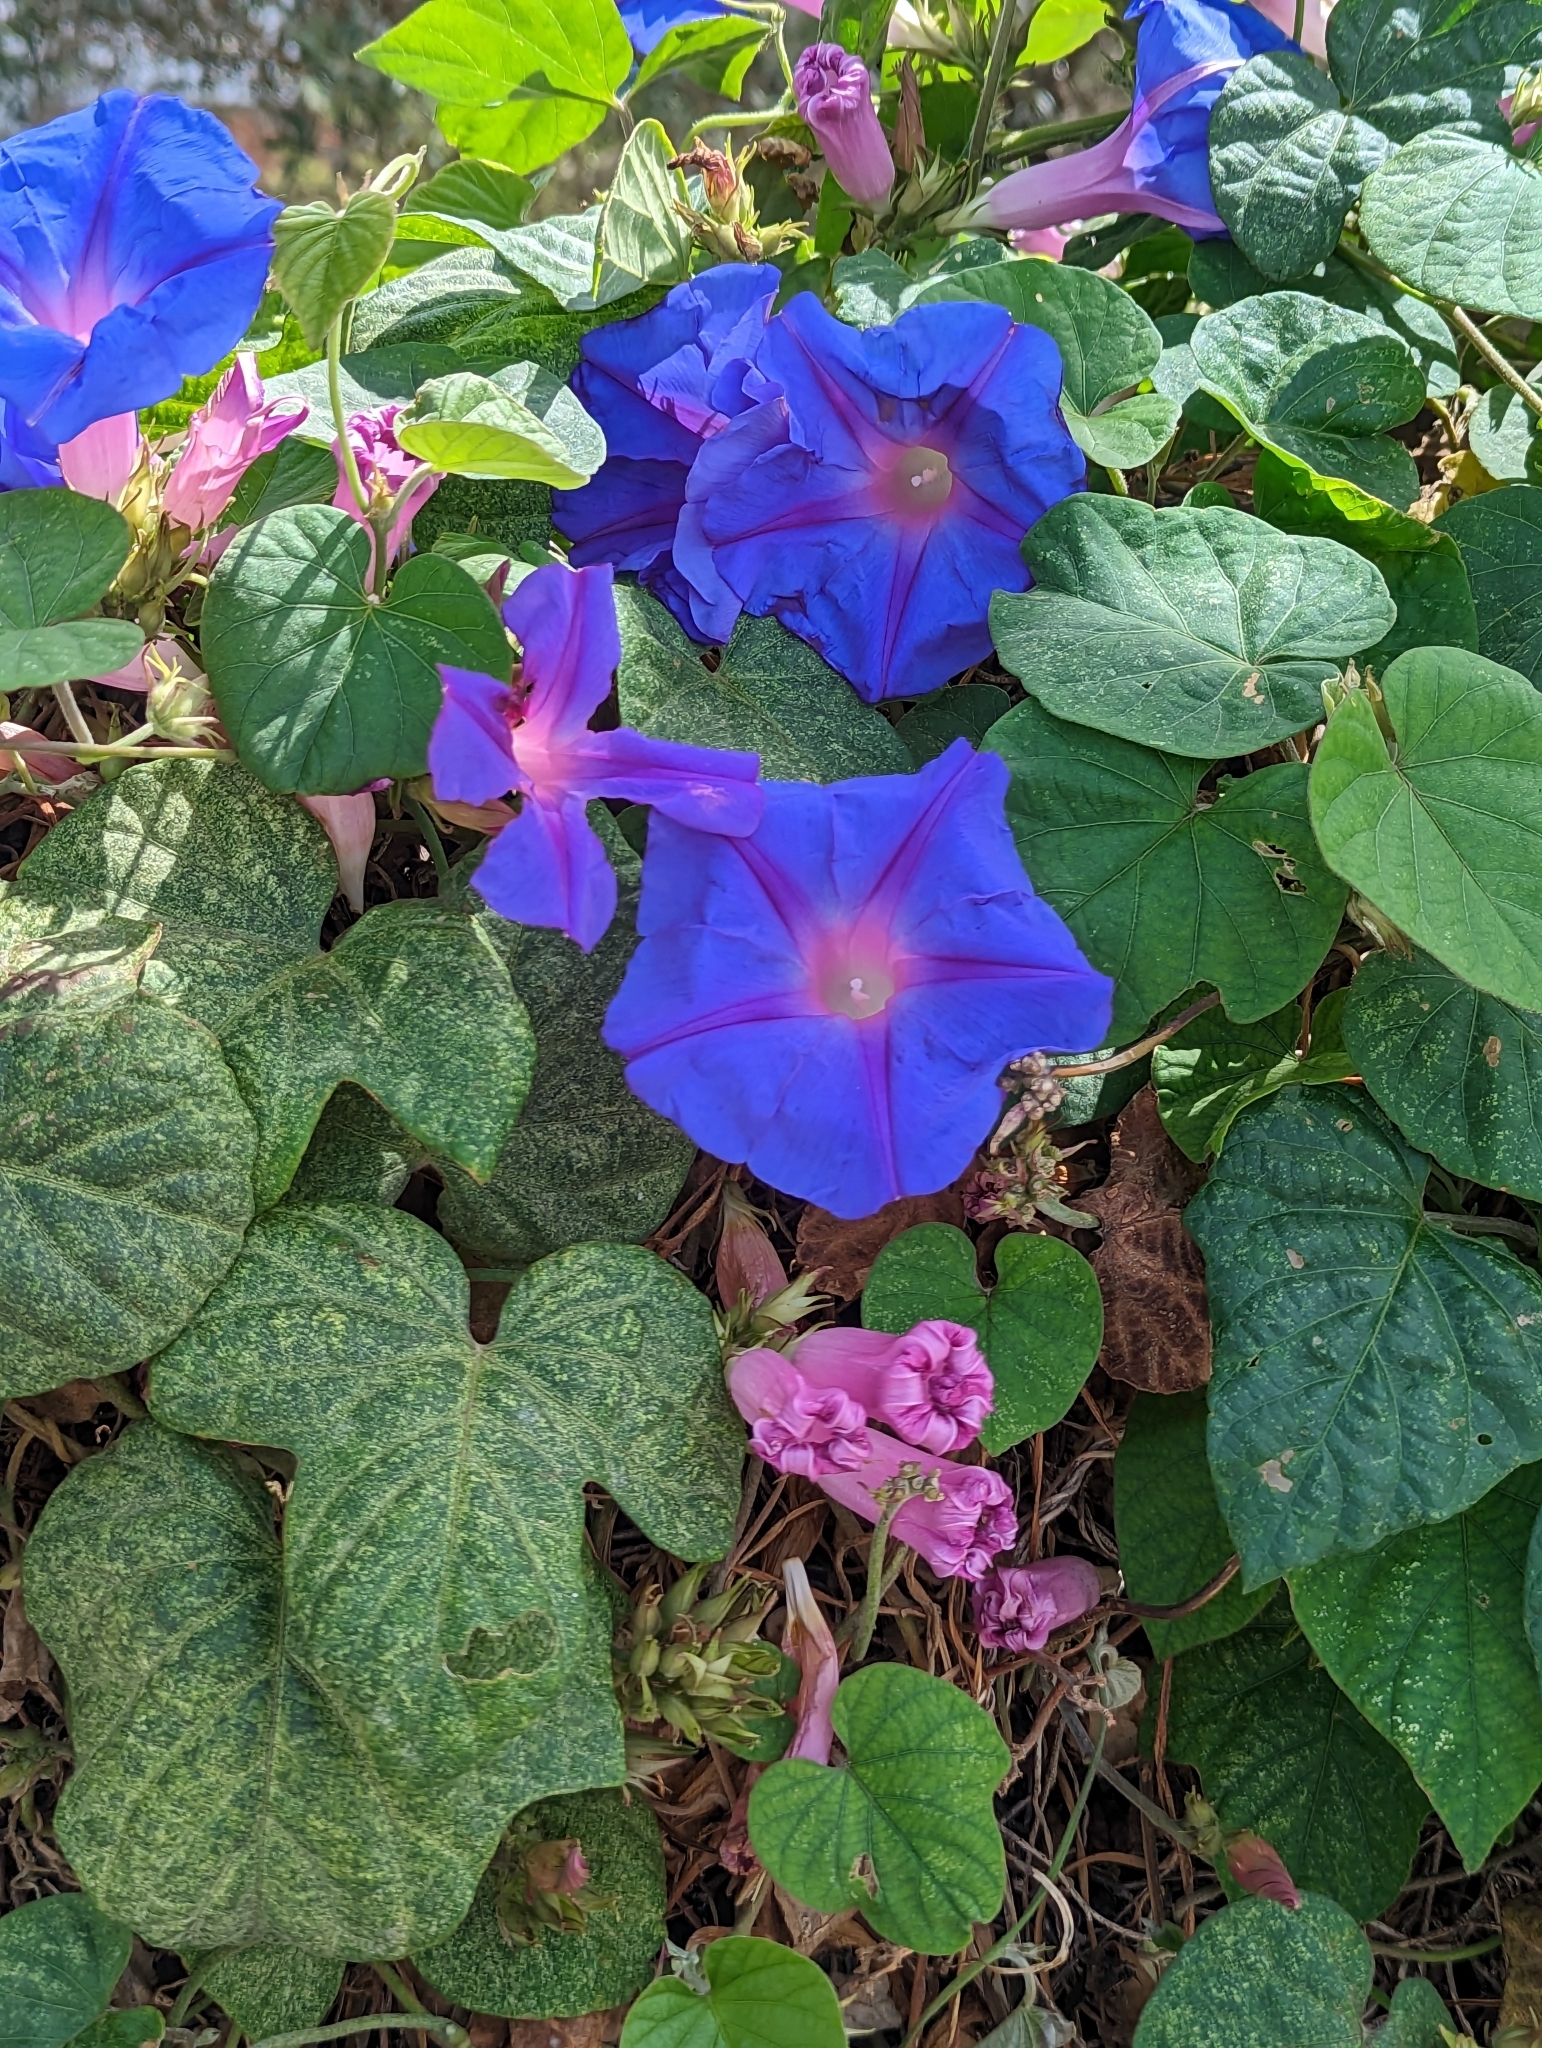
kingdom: Plantae
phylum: Tracheophyta
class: Magnoliopsida
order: Solanales
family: Convolvulaceae
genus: Ipomoea
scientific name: Ipomoea indica
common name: Blue dawnflower
